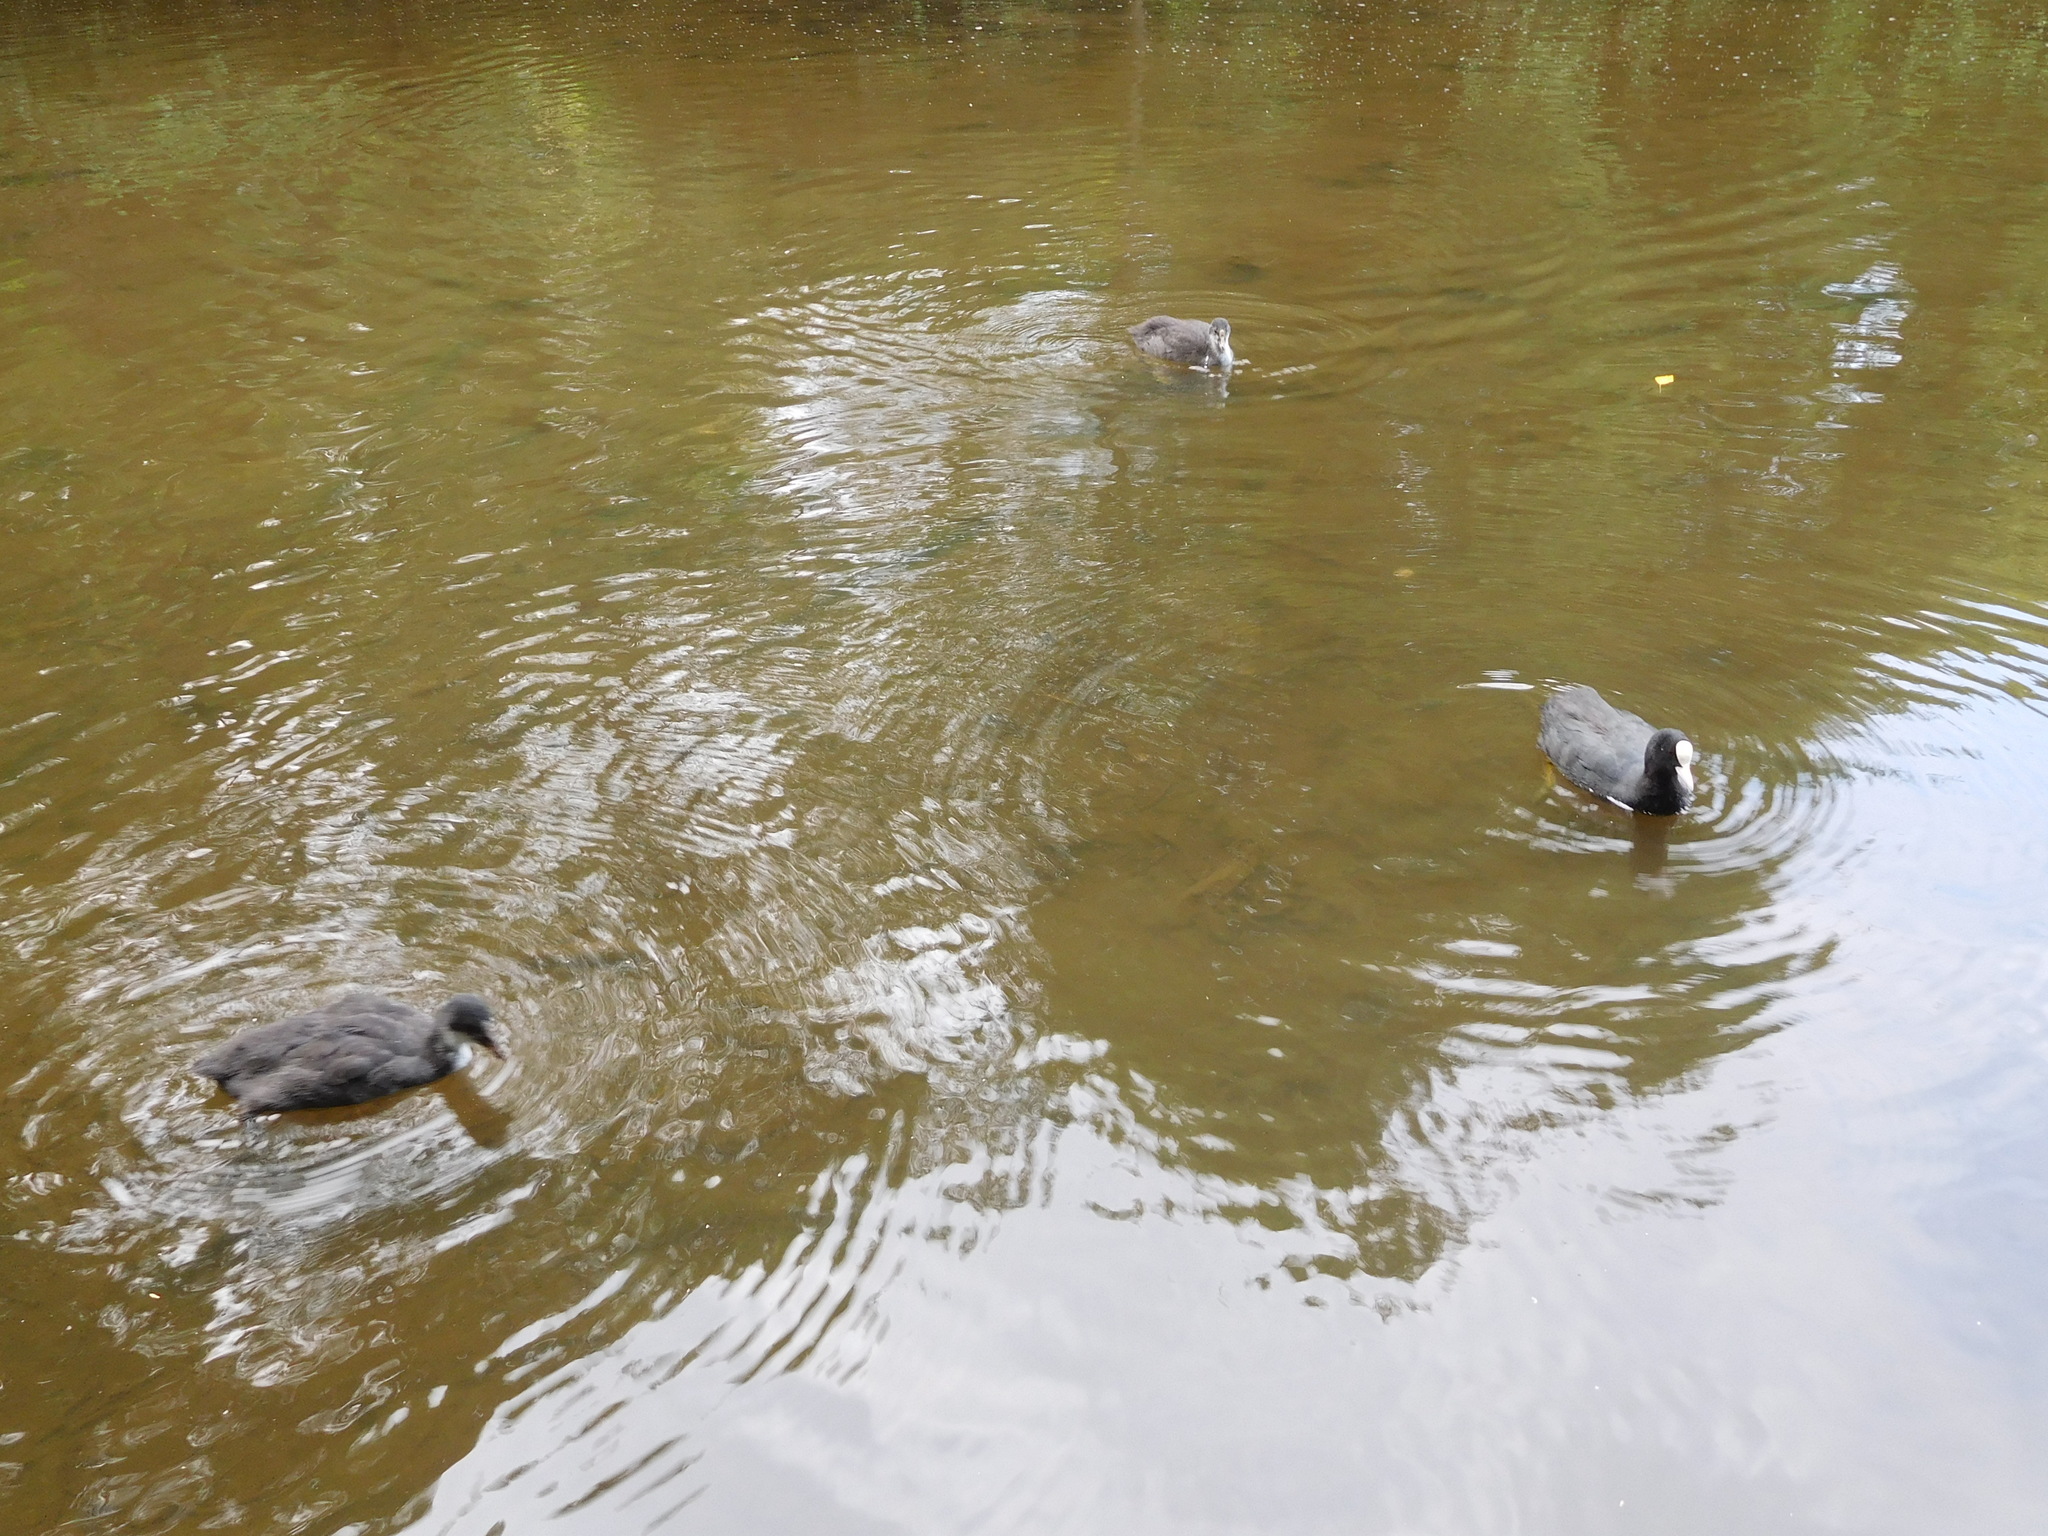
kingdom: Animalia
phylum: Chordata
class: Aves
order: Gruiformes
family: Rallidae
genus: Fulica
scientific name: Fulica atra
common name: Eurasian coot
